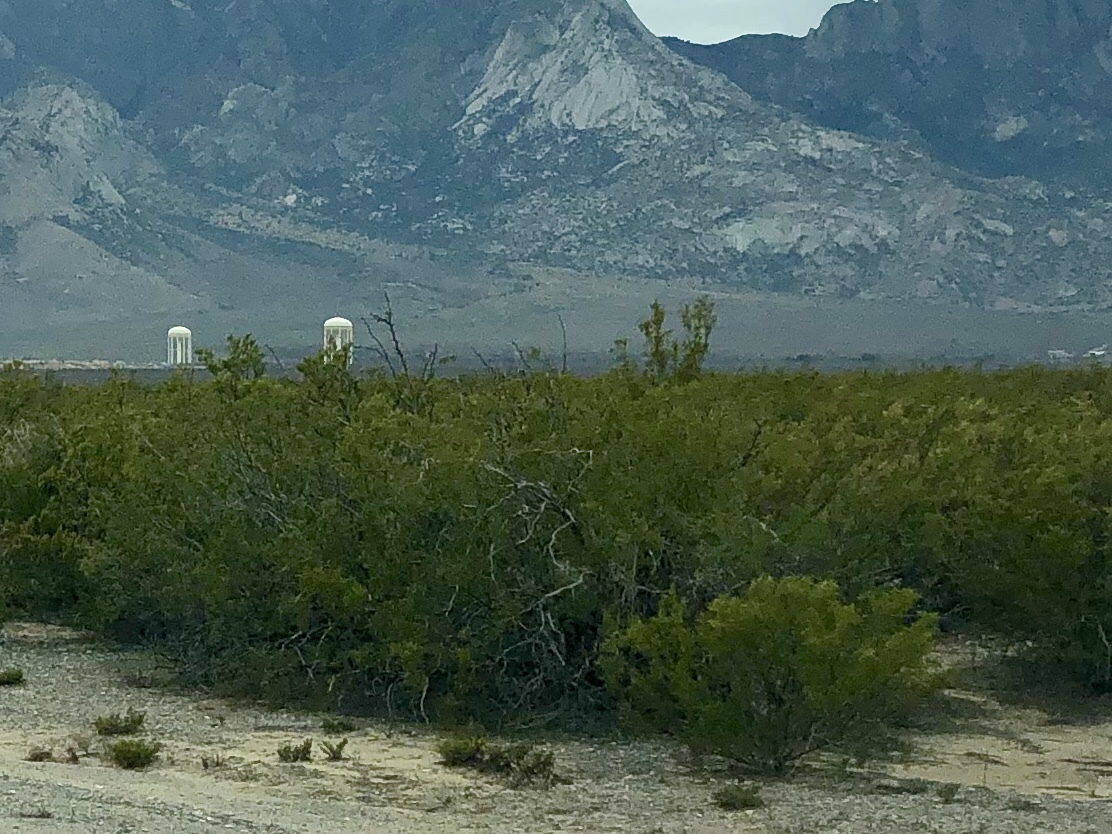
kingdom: Plantae
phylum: Tracheophyta
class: Magnoliopsida
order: Zygophyllales
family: Zygophyllaceae
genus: Larrea
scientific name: Larrea tridentata
